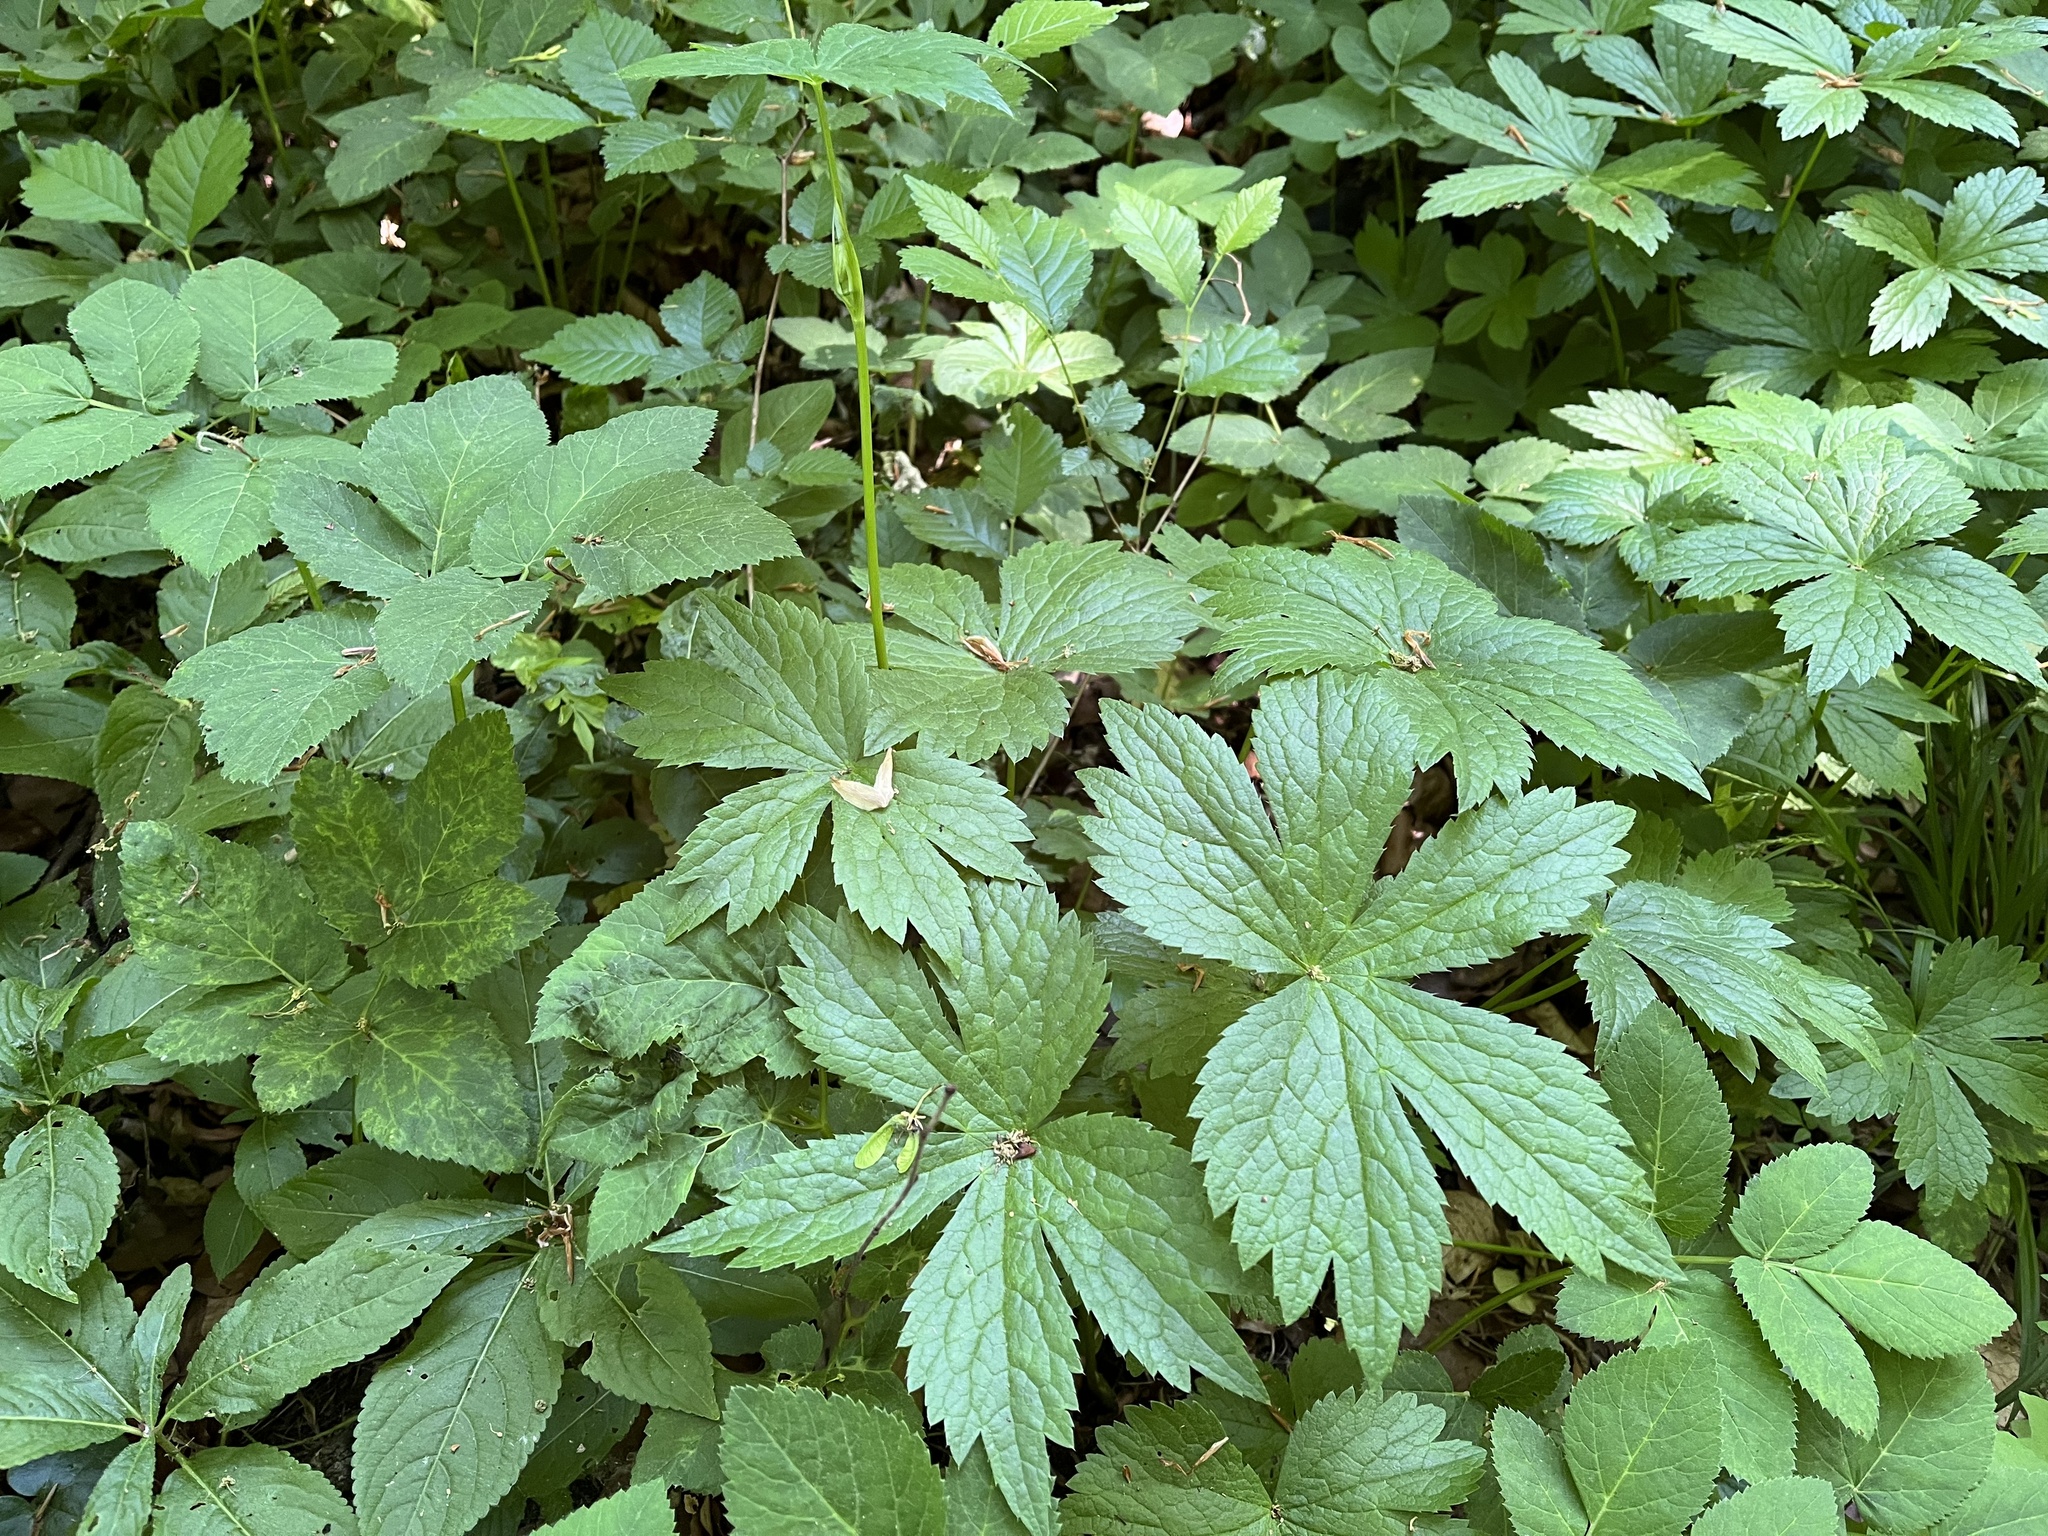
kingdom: Plantae
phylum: Tracheophyta
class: Magnoliopsida
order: Apiales
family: Apiaceae
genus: Astrantia
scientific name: Astrantia major
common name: Greater masterwort
